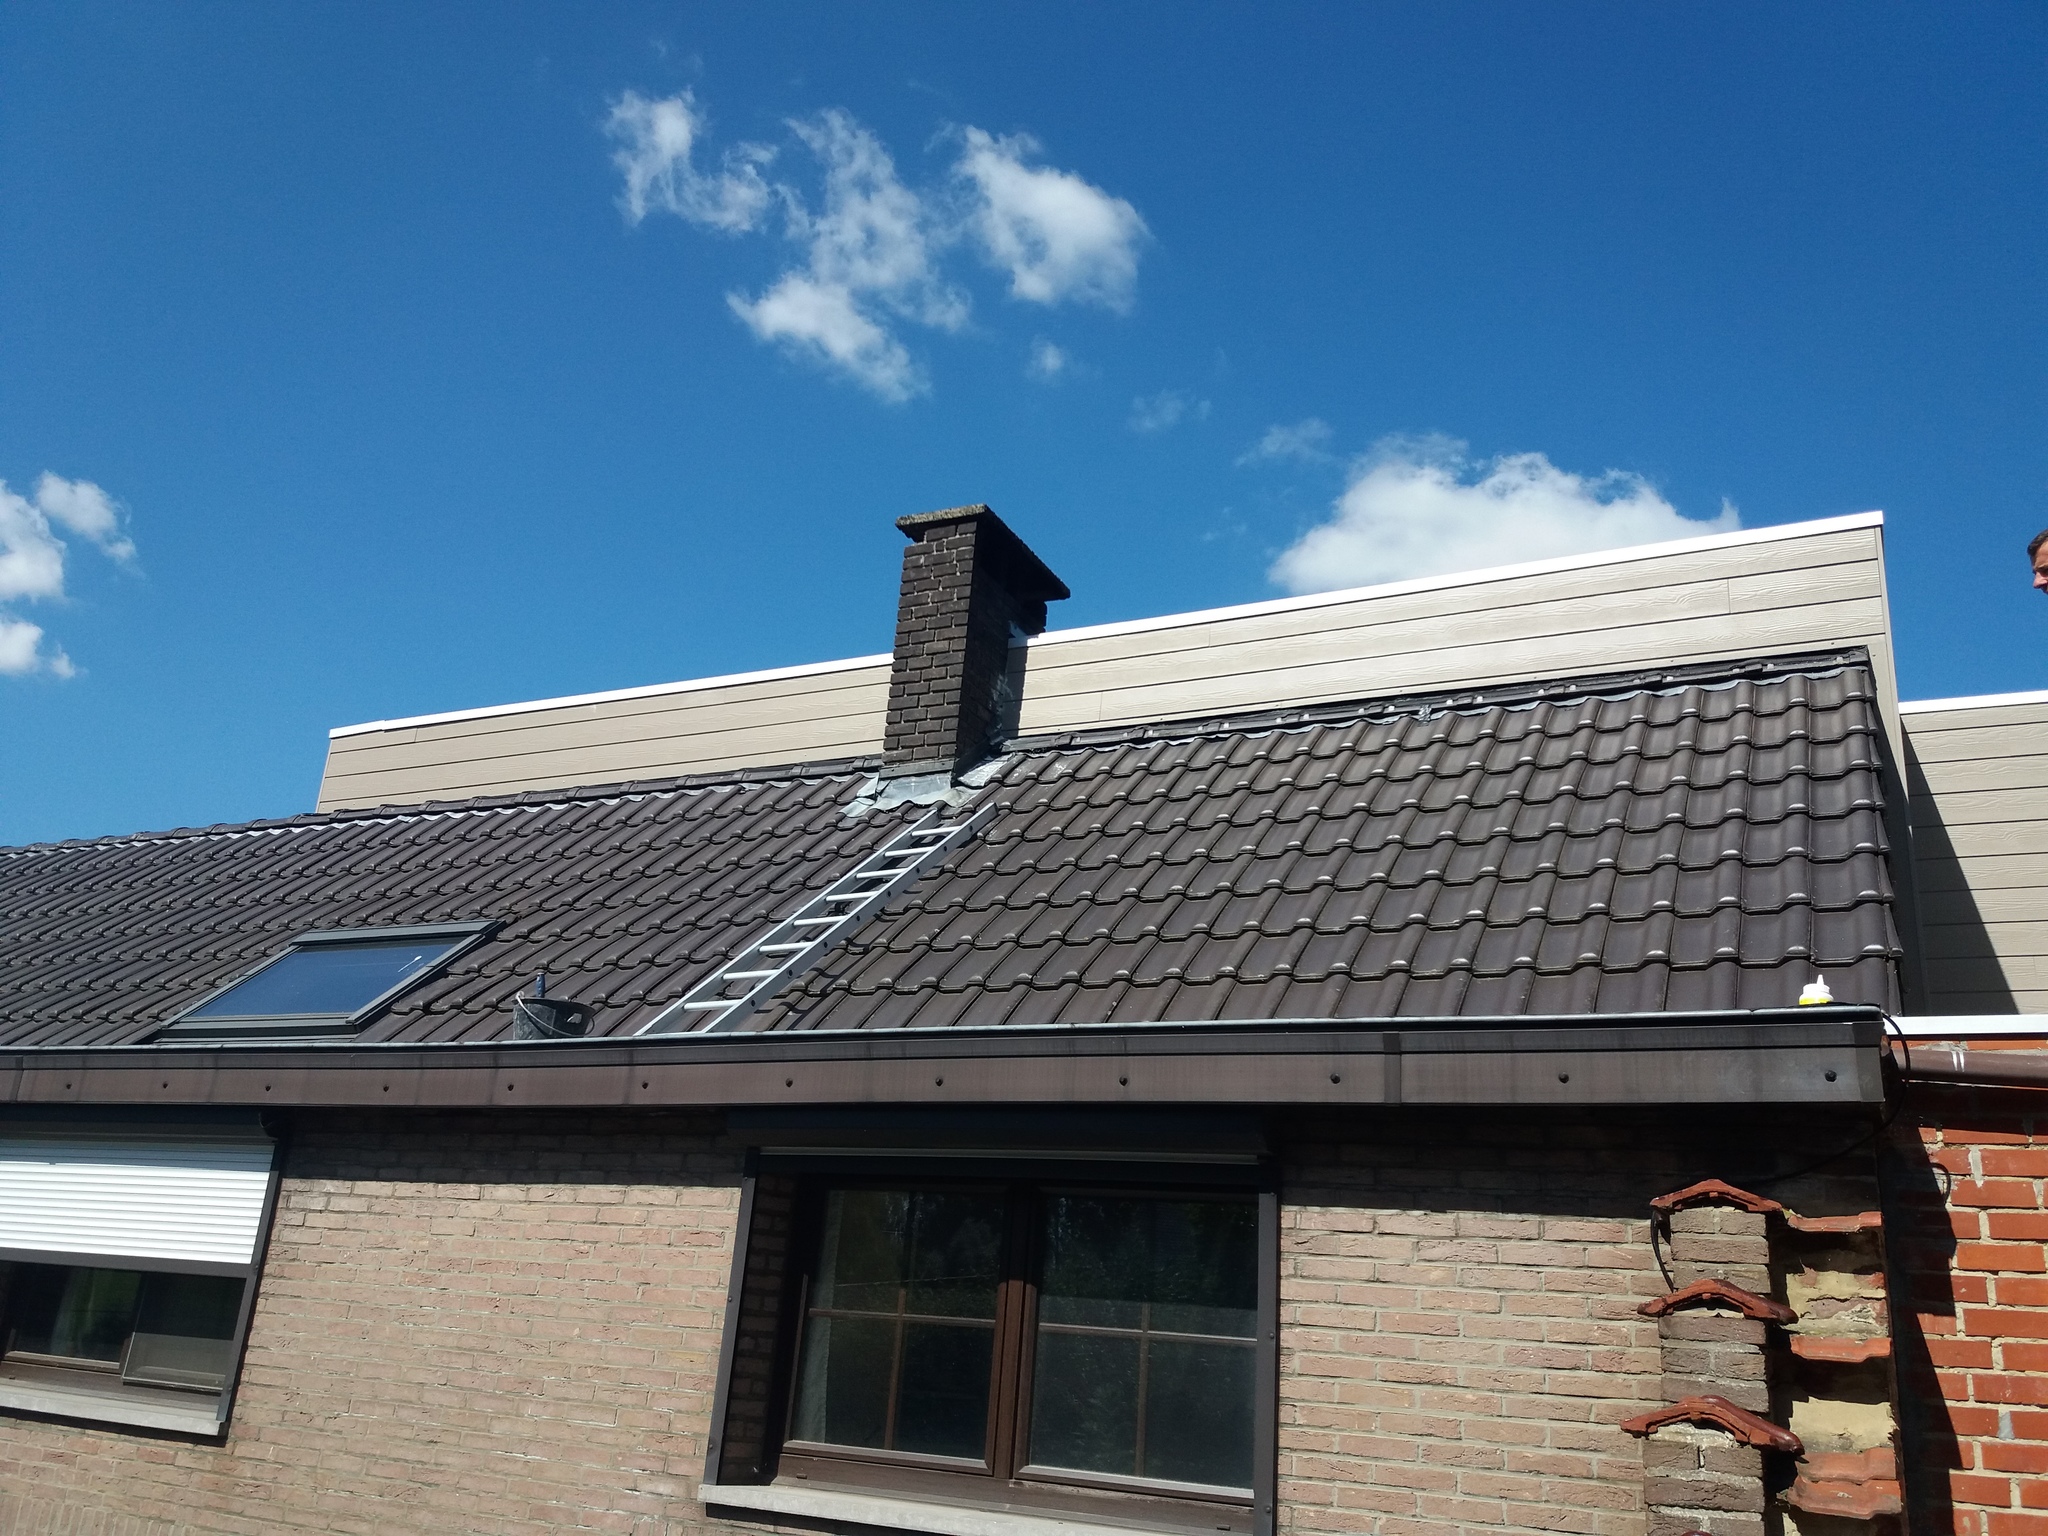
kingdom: Animalia
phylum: Arthropoda
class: Insecta
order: Hymenoptera
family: Vespidae
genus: Vespa
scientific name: Vespa crabro
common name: Hornet
